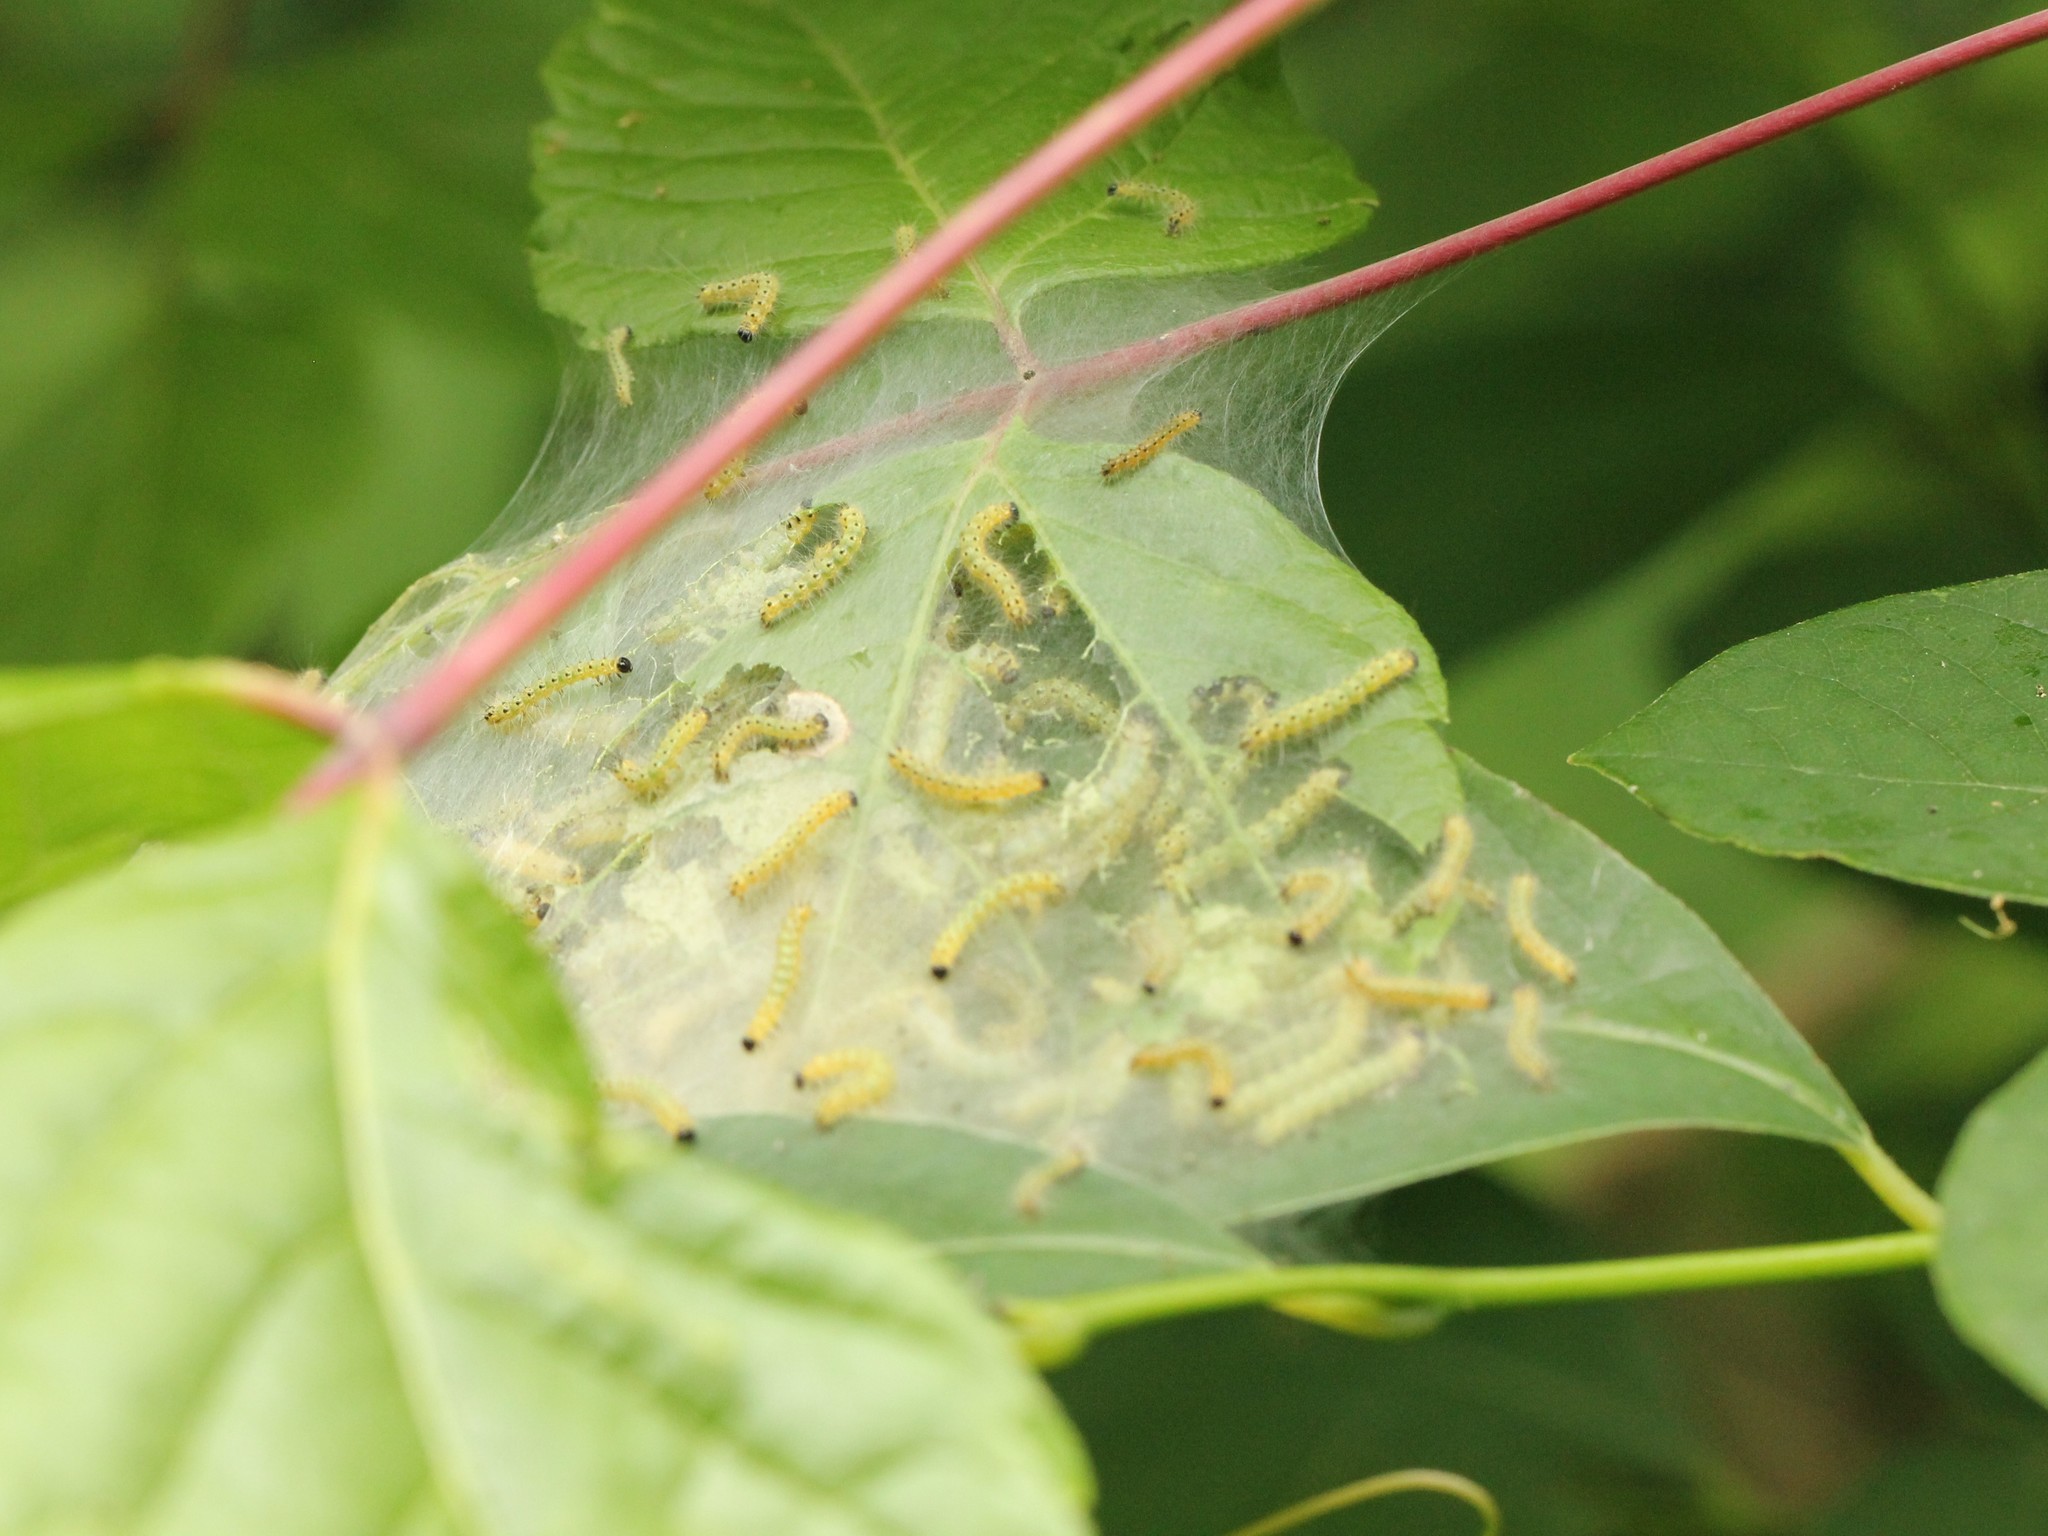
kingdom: Animalia
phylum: Arthropoda
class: Insecta
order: Lepidoptera
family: Erebidae
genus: Hyphantria
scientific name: Hyphantria cunea
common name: American white moth
